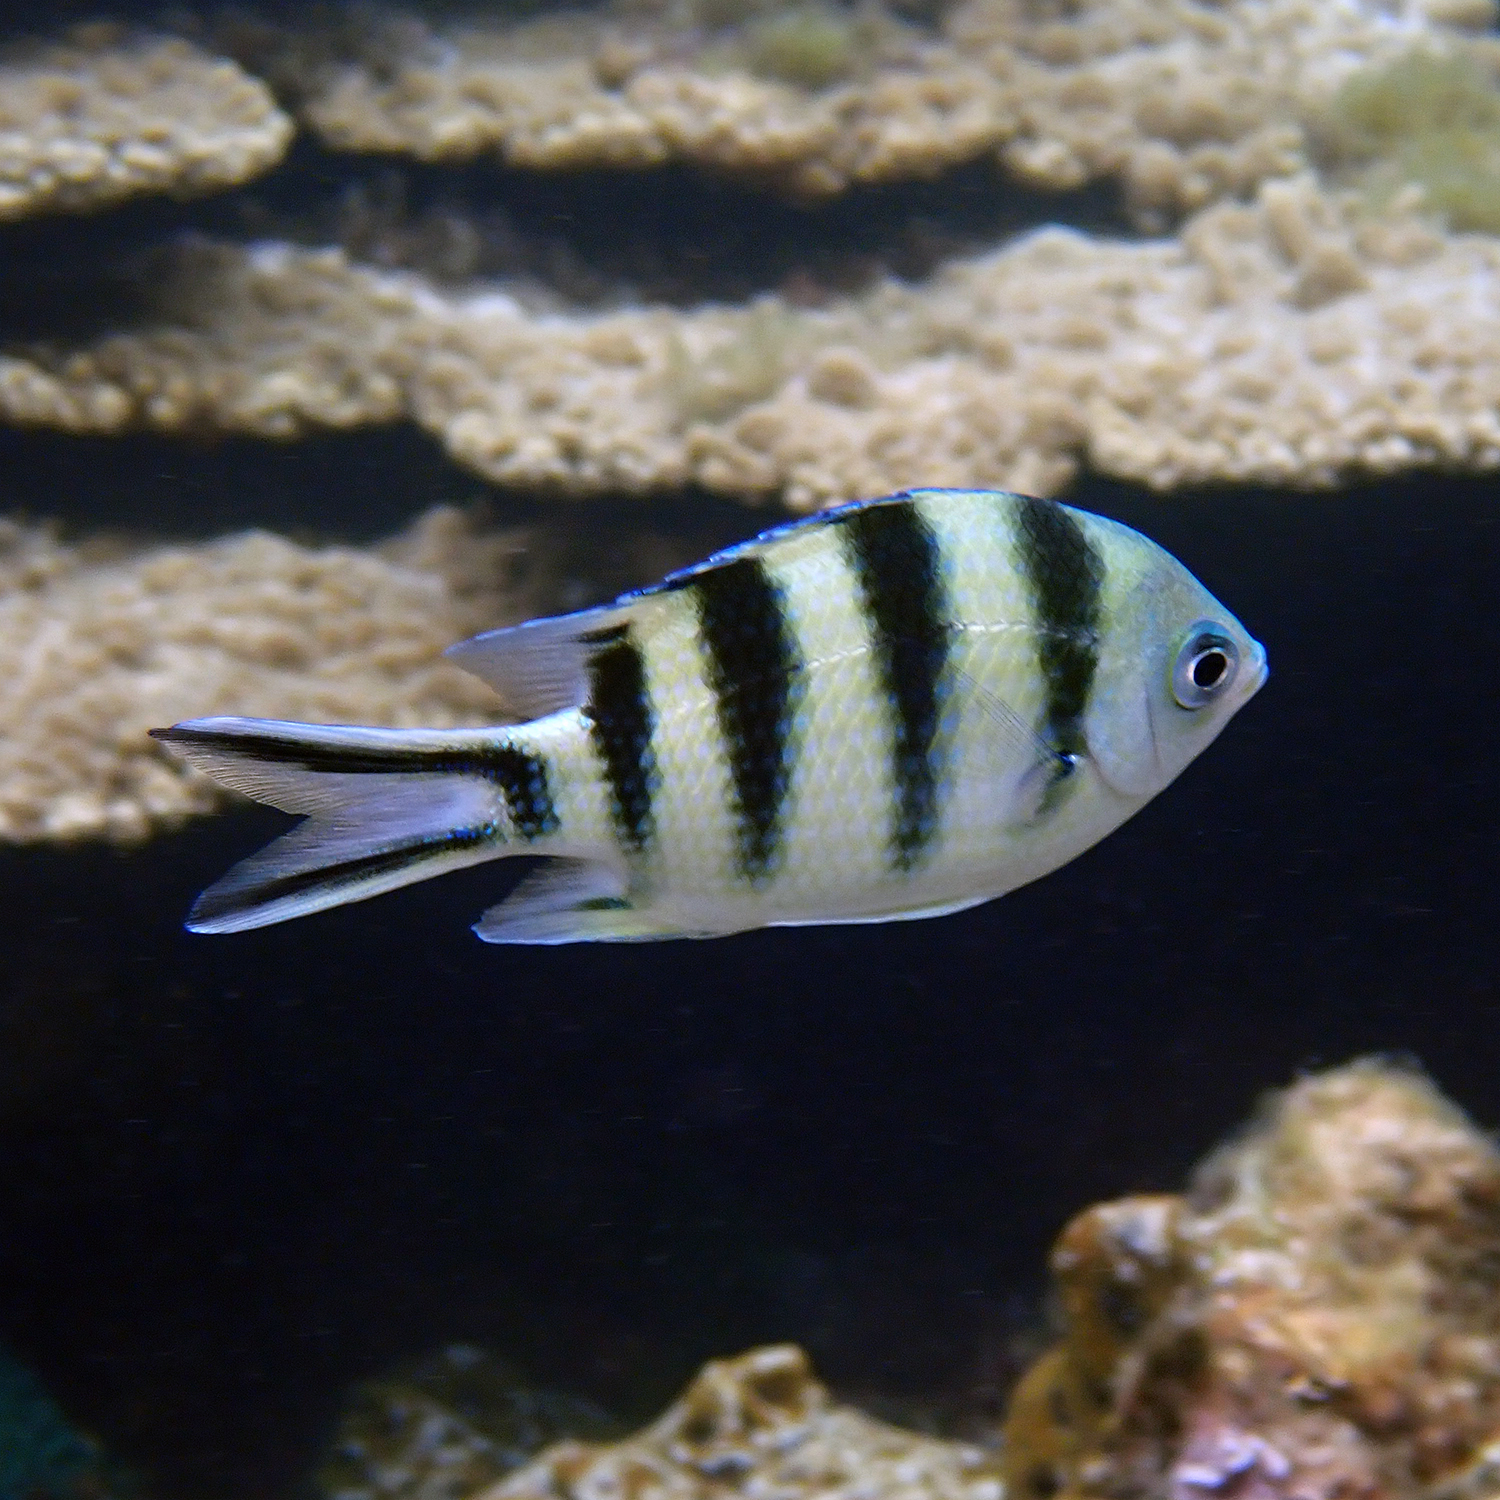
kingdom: Animalia
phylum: Chordata
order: Perciformes
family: Pomacentridae
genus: Abudefduf
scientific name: Abudefduf sexfasciatus
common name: Scissortail sergeant
